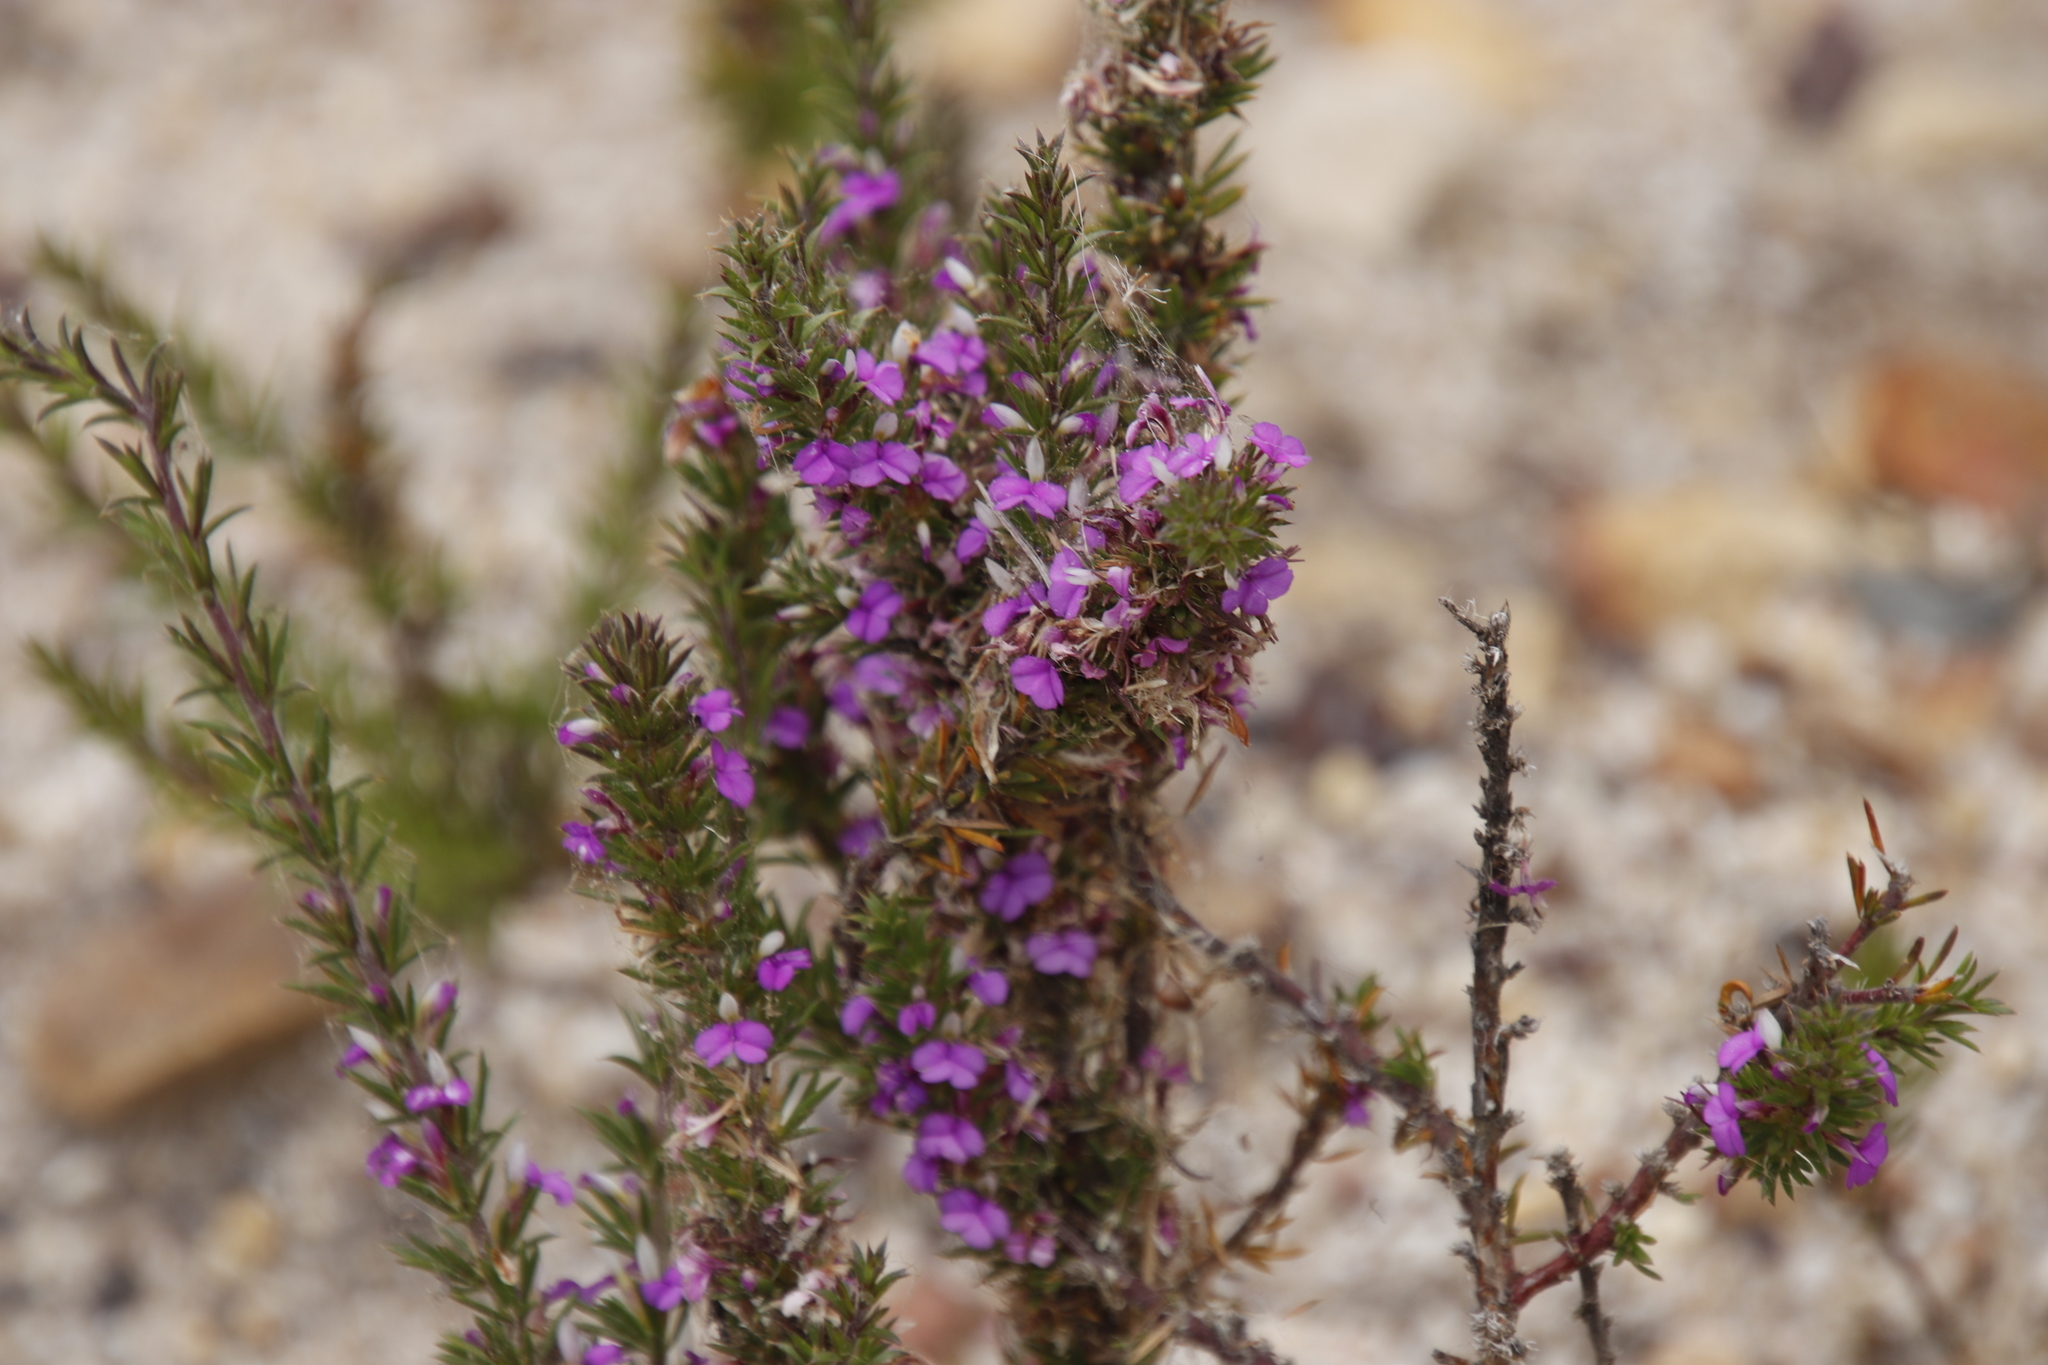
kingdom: Plantae
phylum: Tracheophyta
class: Magnoliopsida
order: Fabales
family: Polygalaceae
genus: Muraltia
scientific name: Muraltia heisteria
